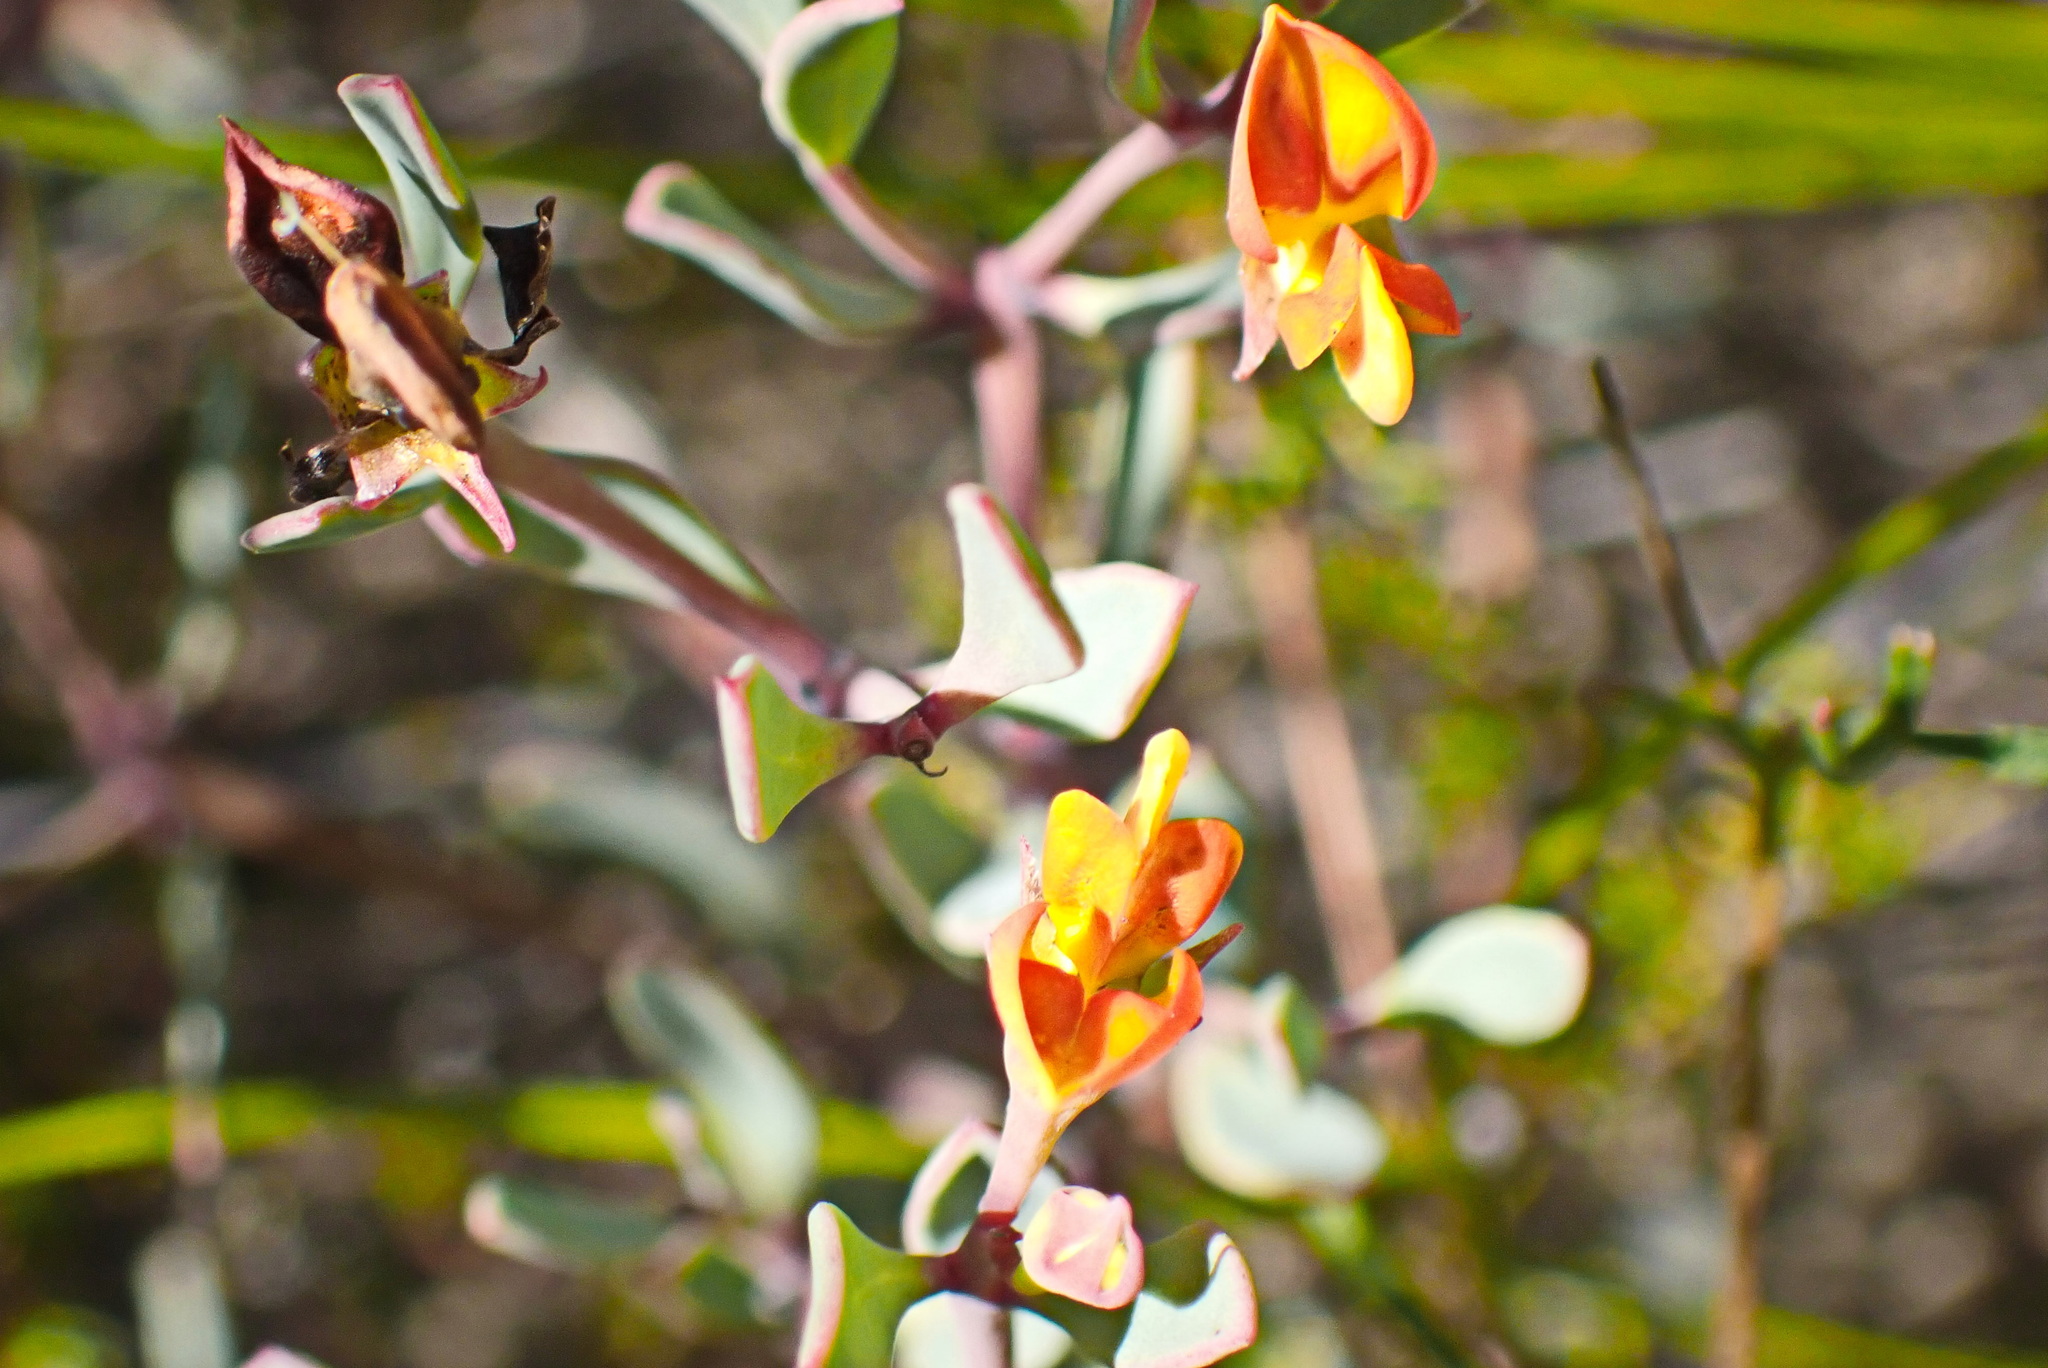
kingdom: Plantae
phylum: Tracheophyta
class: Magnoliopsida
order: Fabales
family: Fabaceae
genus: Rafnia
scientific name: Rafnia capensis
